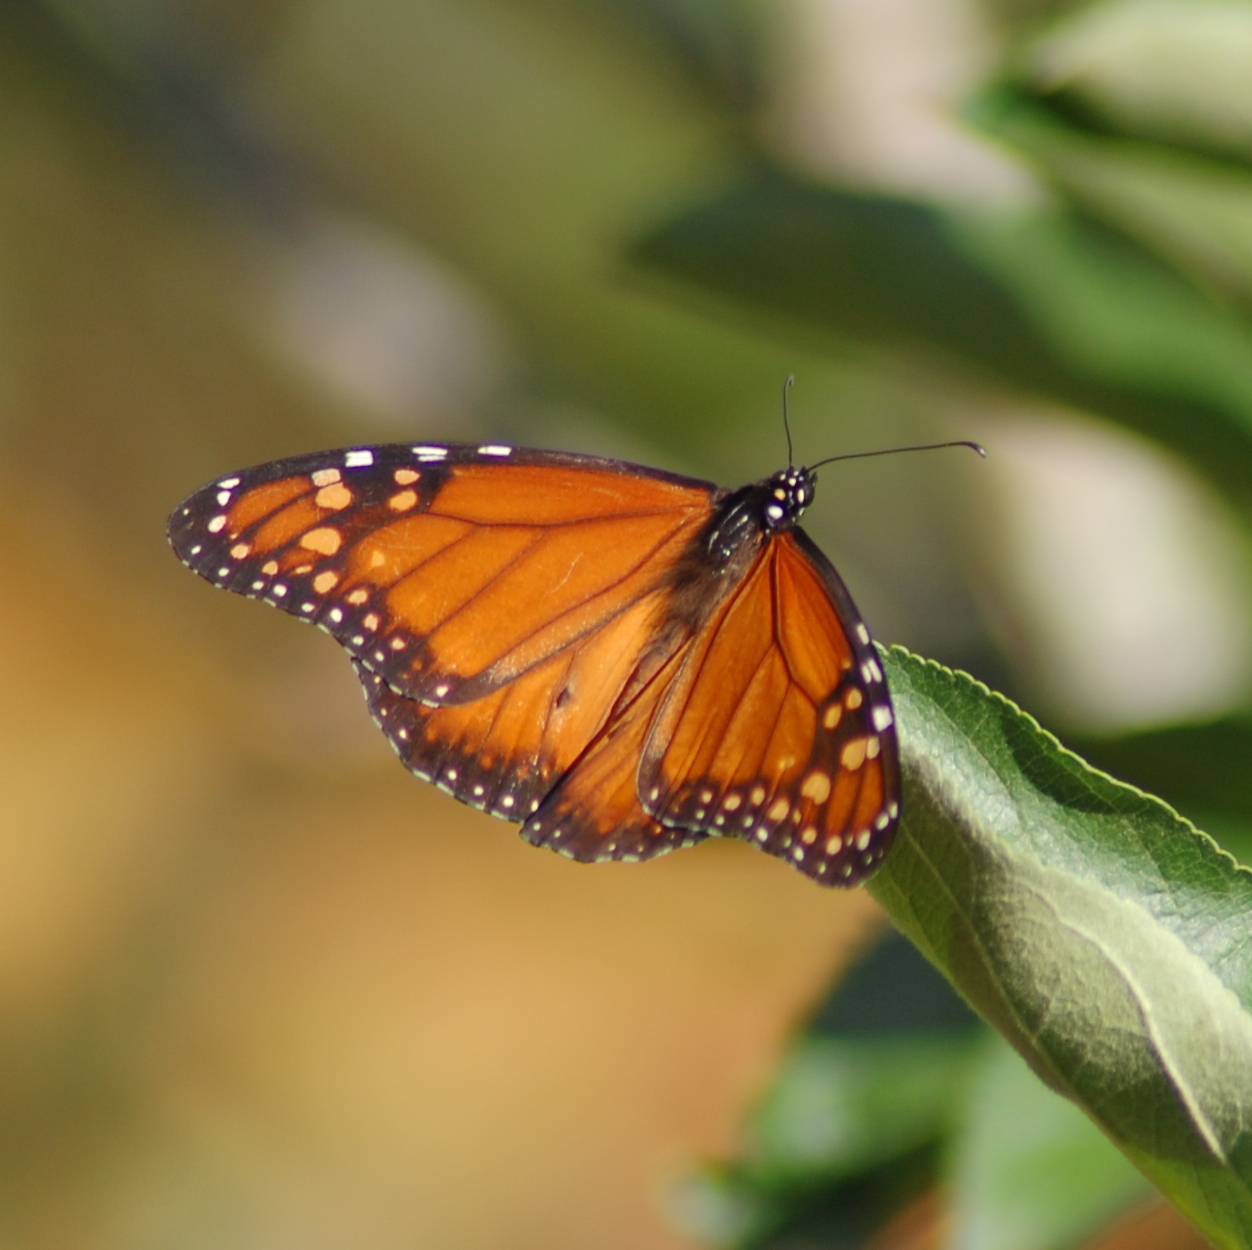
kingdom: Animalia
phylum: Arthropoda
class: Insecta
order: Lepidoptera
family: Nymphalidae
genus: Danaus
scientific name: Danaus erippus
